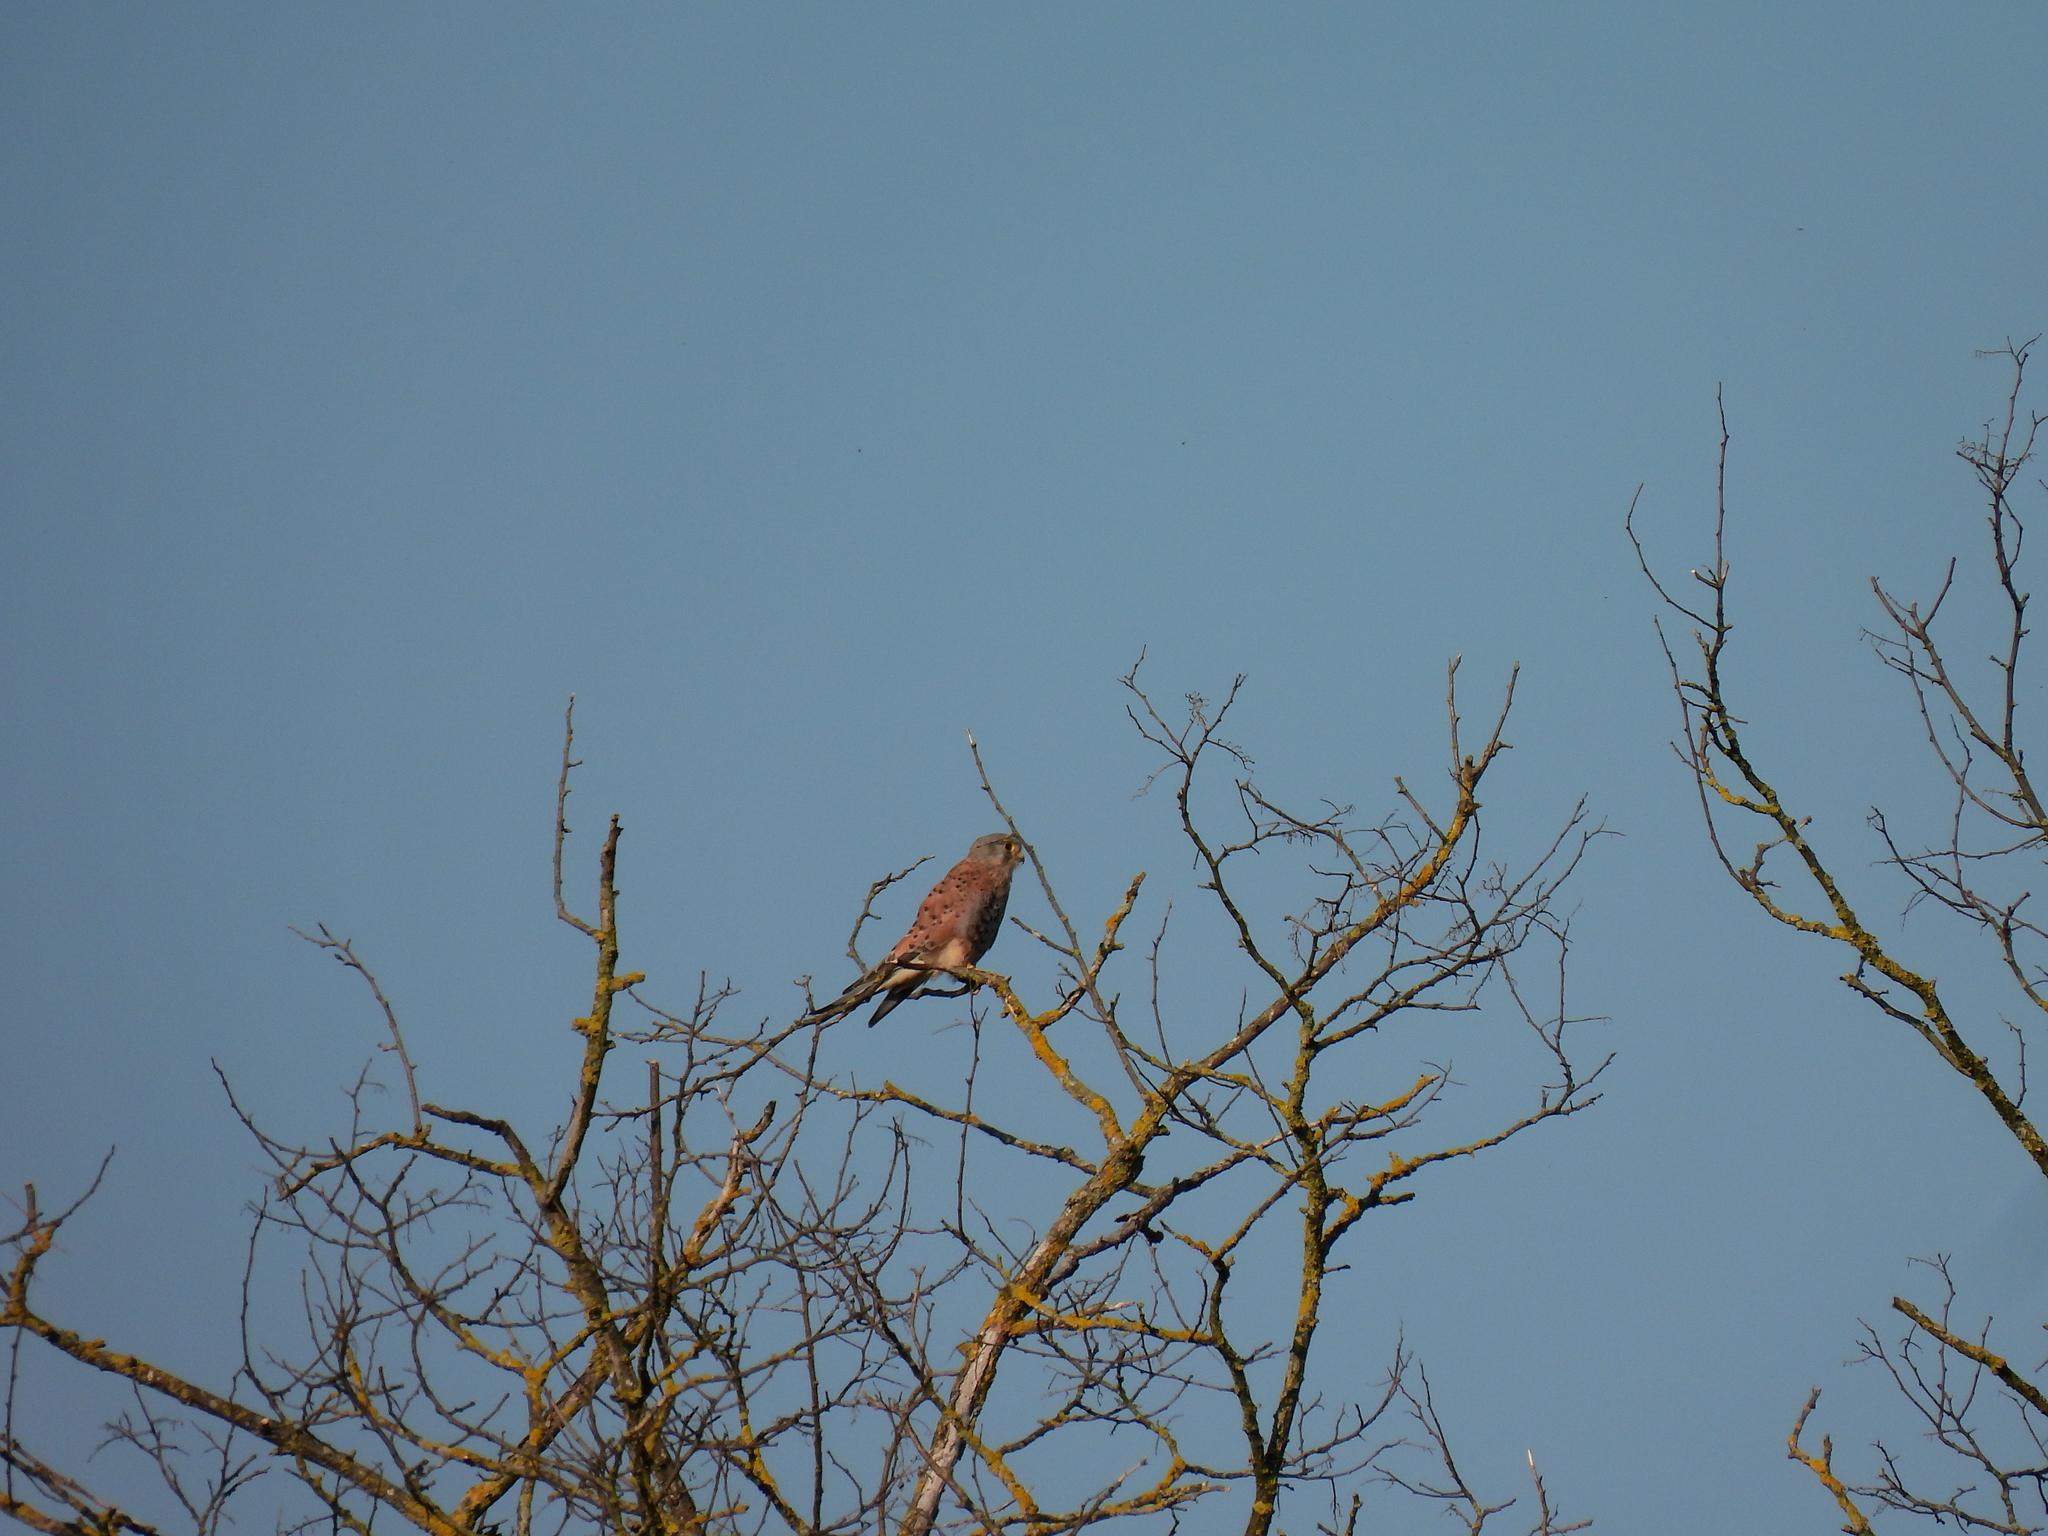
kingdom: Animalia
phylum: Chordata
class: Aves
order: Falconiformes
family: Falconidae
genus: Falco
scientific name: Falco tinnunculus
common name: Common kestrel
